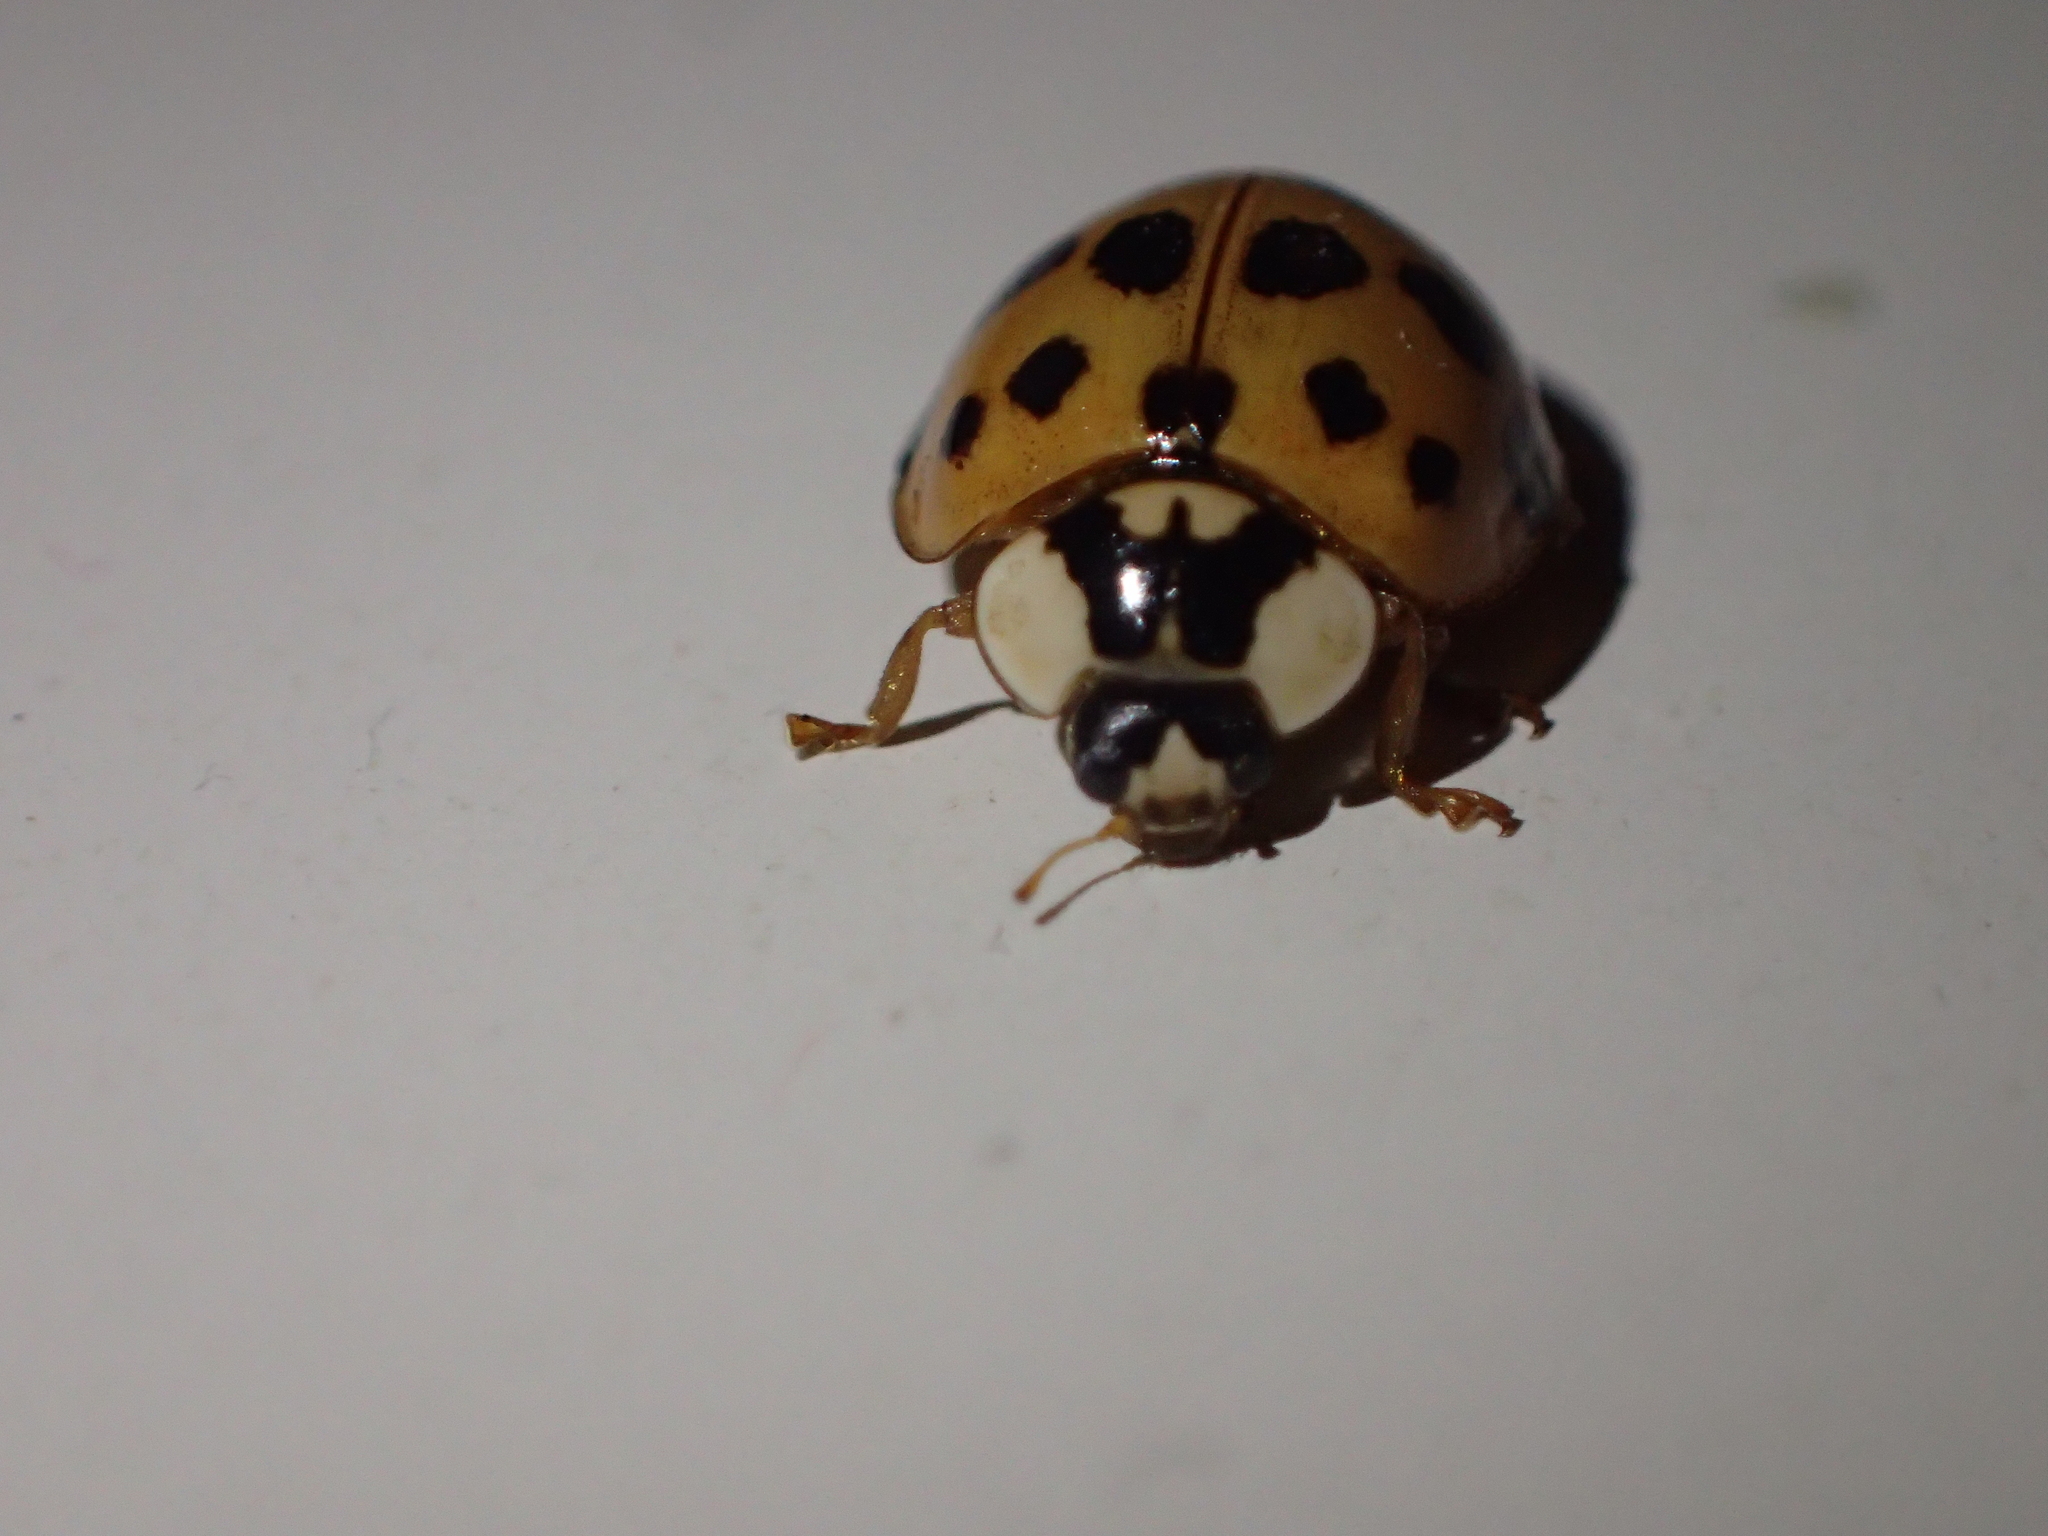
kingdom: Animalia
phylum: Arthropoda
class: Insecta
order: Coleoptera
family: Coccinellidae
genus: Harmonia
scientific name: Harmonia axyridis
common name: Harlequin ladybird
